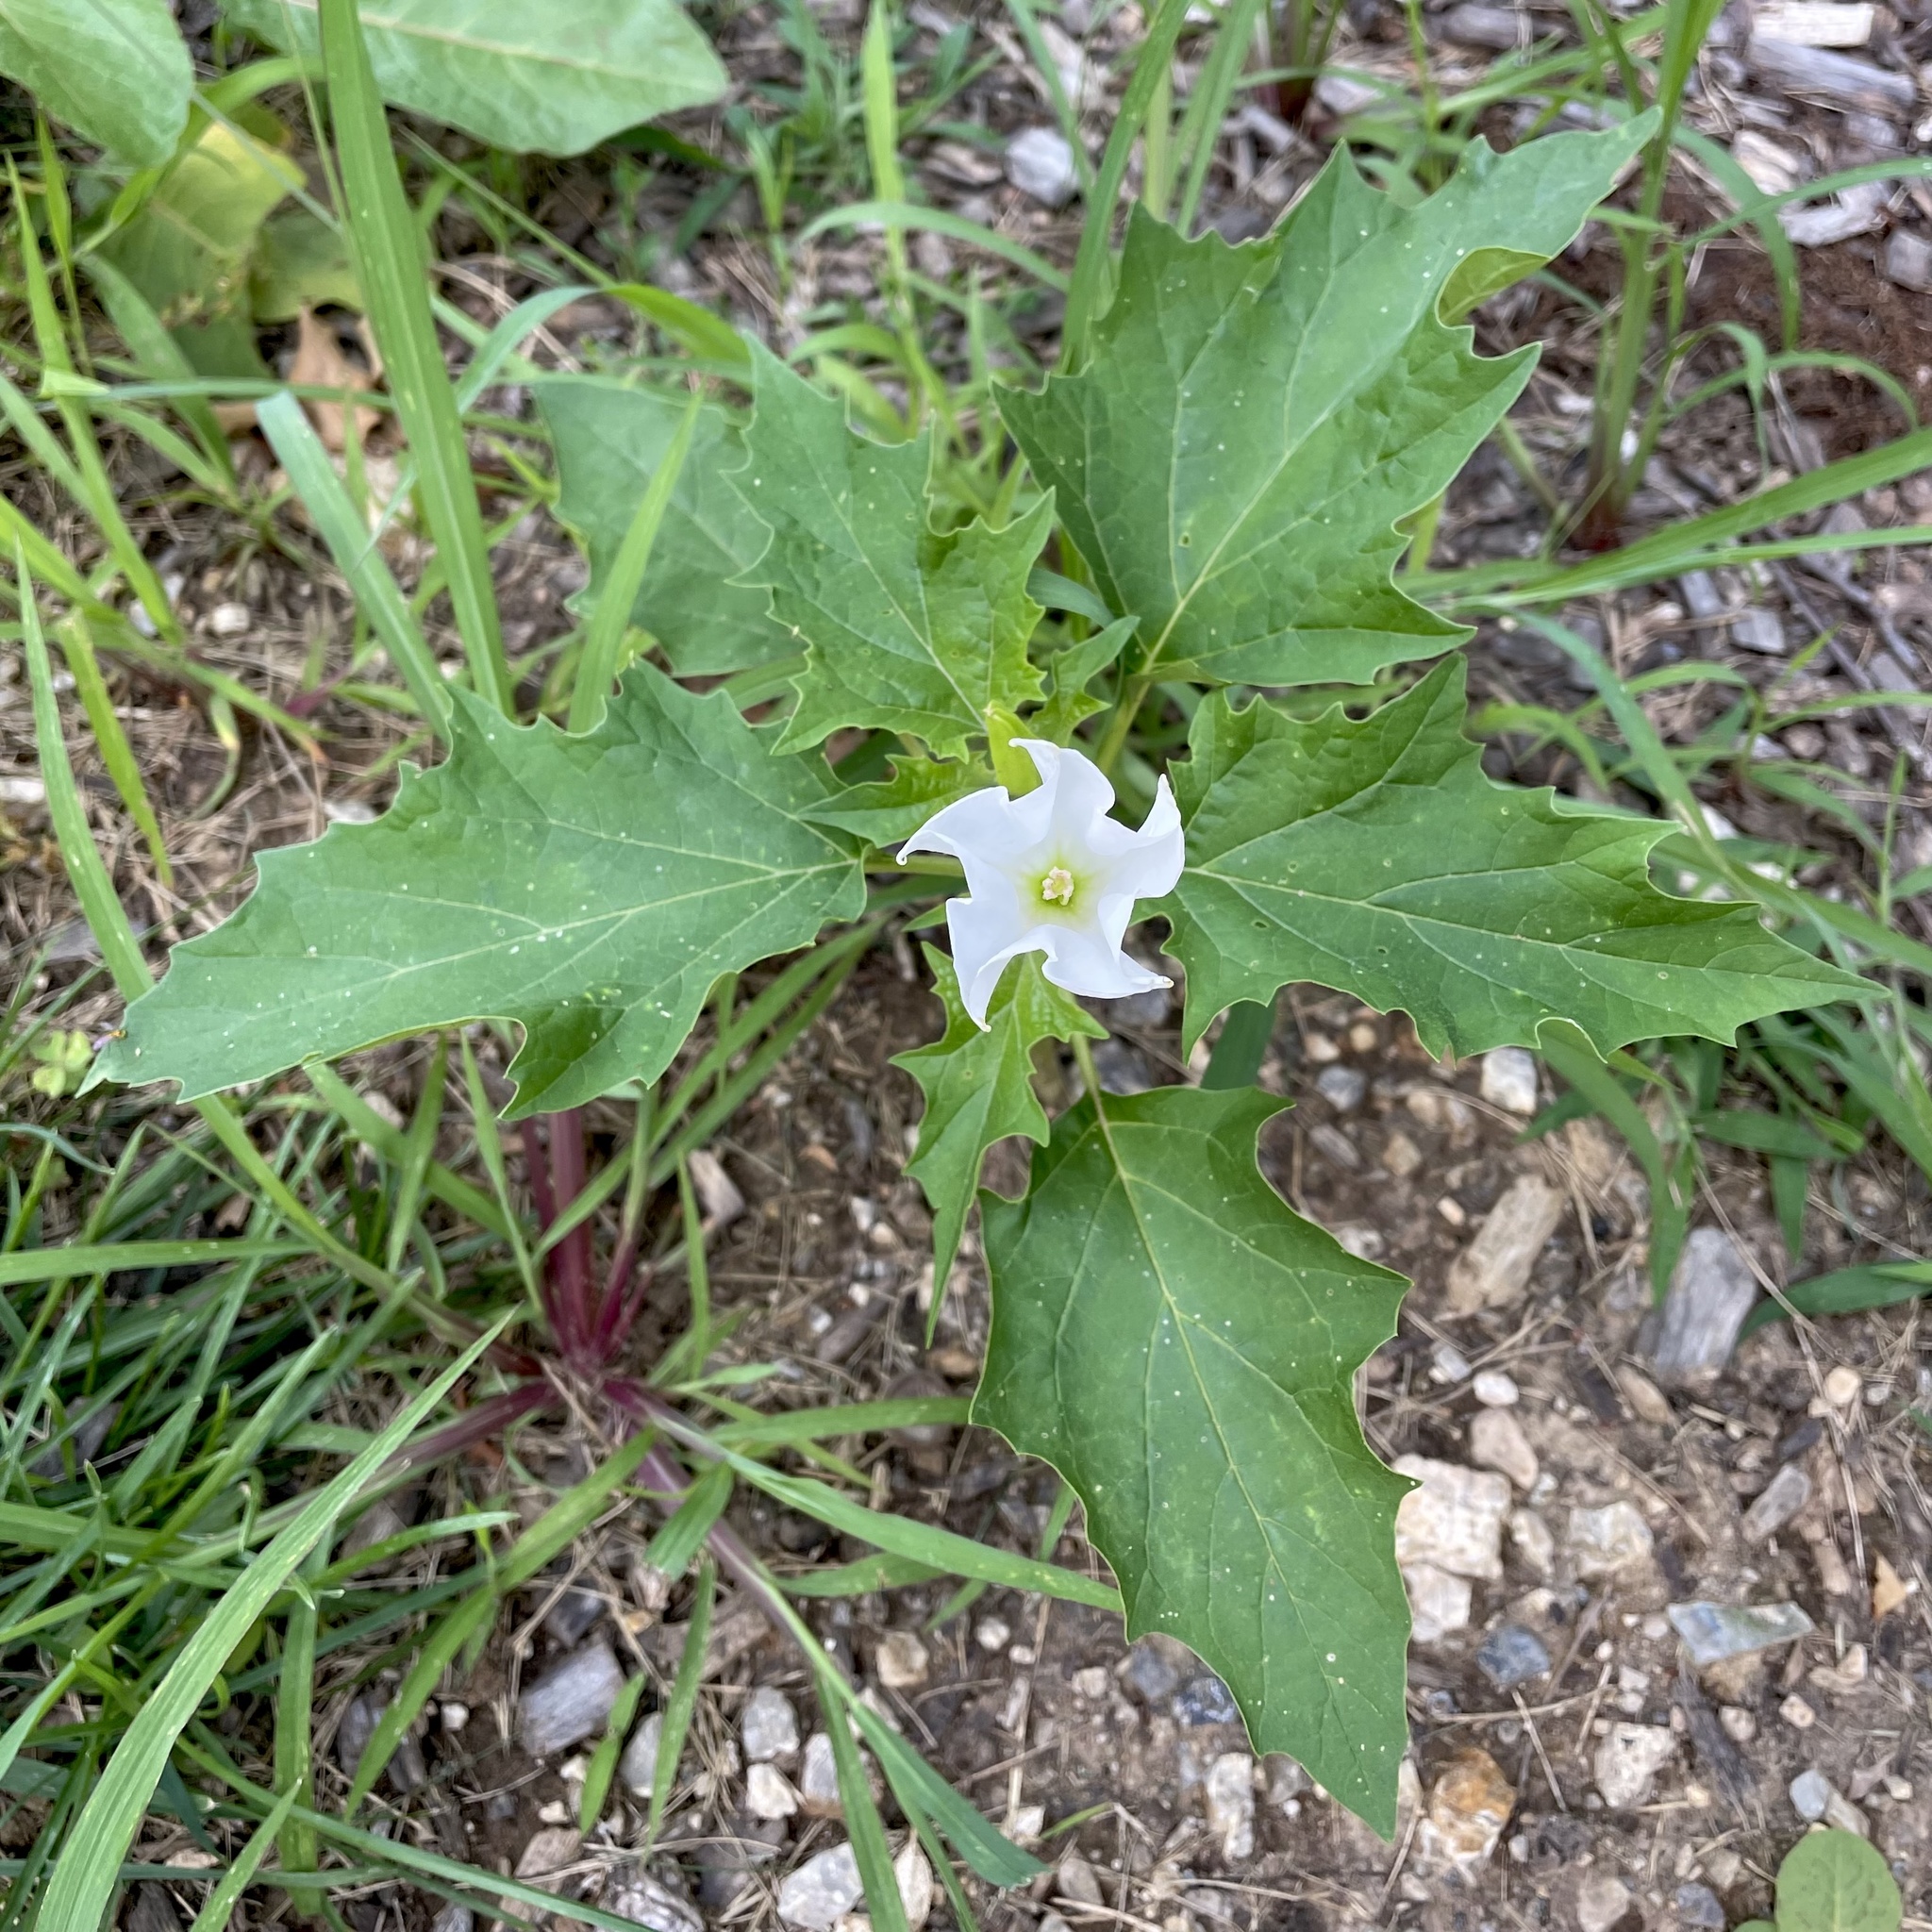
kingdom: Plantae
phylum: Tracheophyta
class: Magnoliopsida
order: Solanales
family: Solanaceae
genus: Datura
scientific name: Datura stramonium
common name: Thorn-apple
